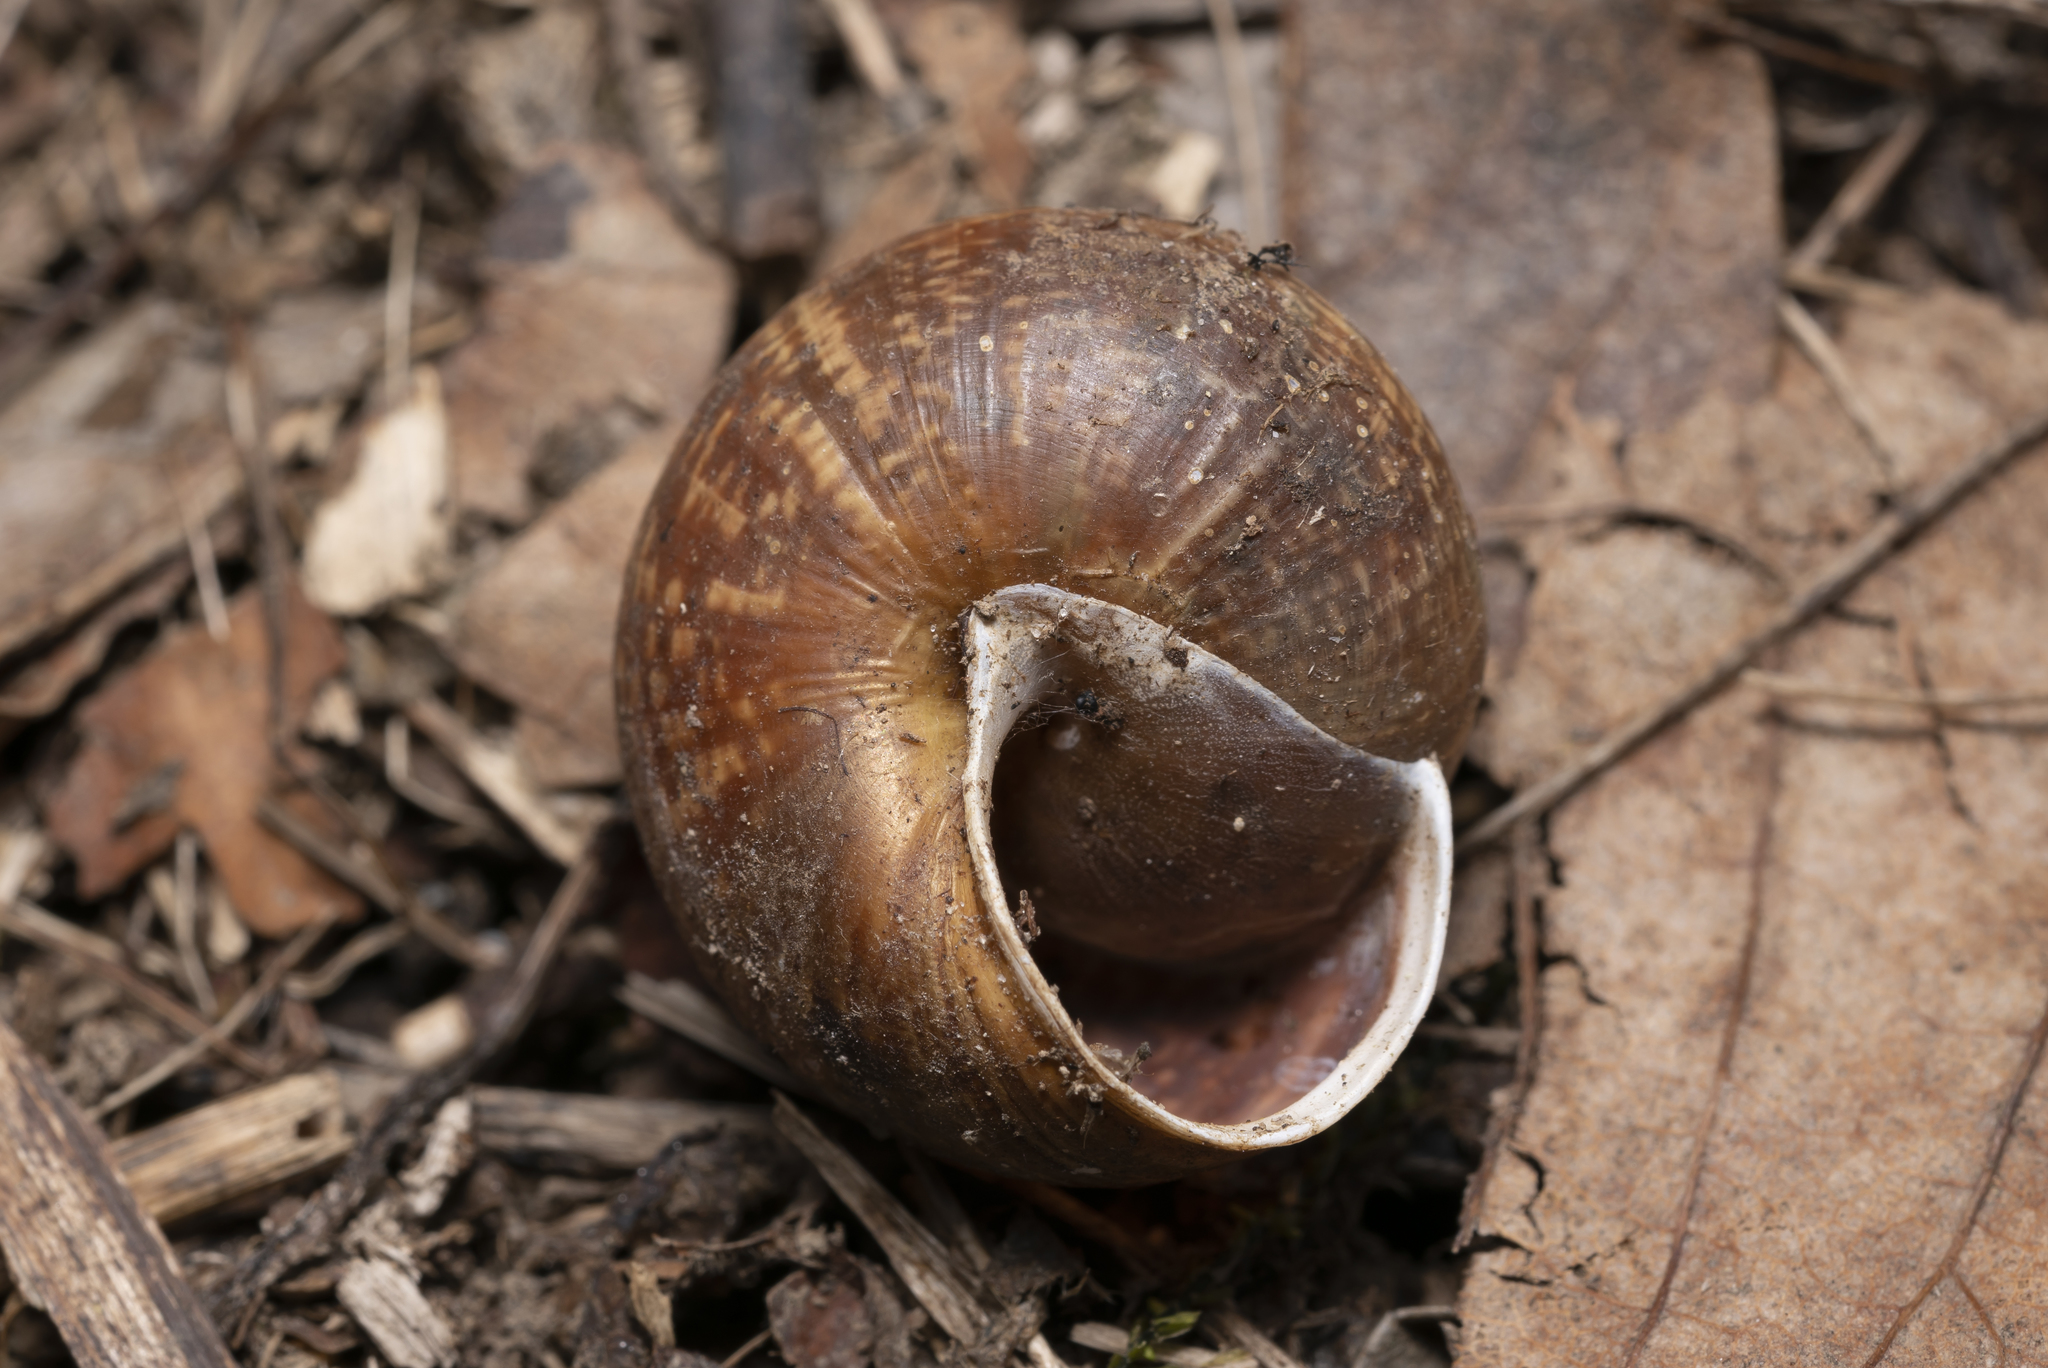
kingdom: Animalia
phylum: Mollusca
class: Gastropoda
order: Stylommatophora
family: Helicidae
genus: Arianta
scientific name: Arianta arbustorum
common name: Copse snail
